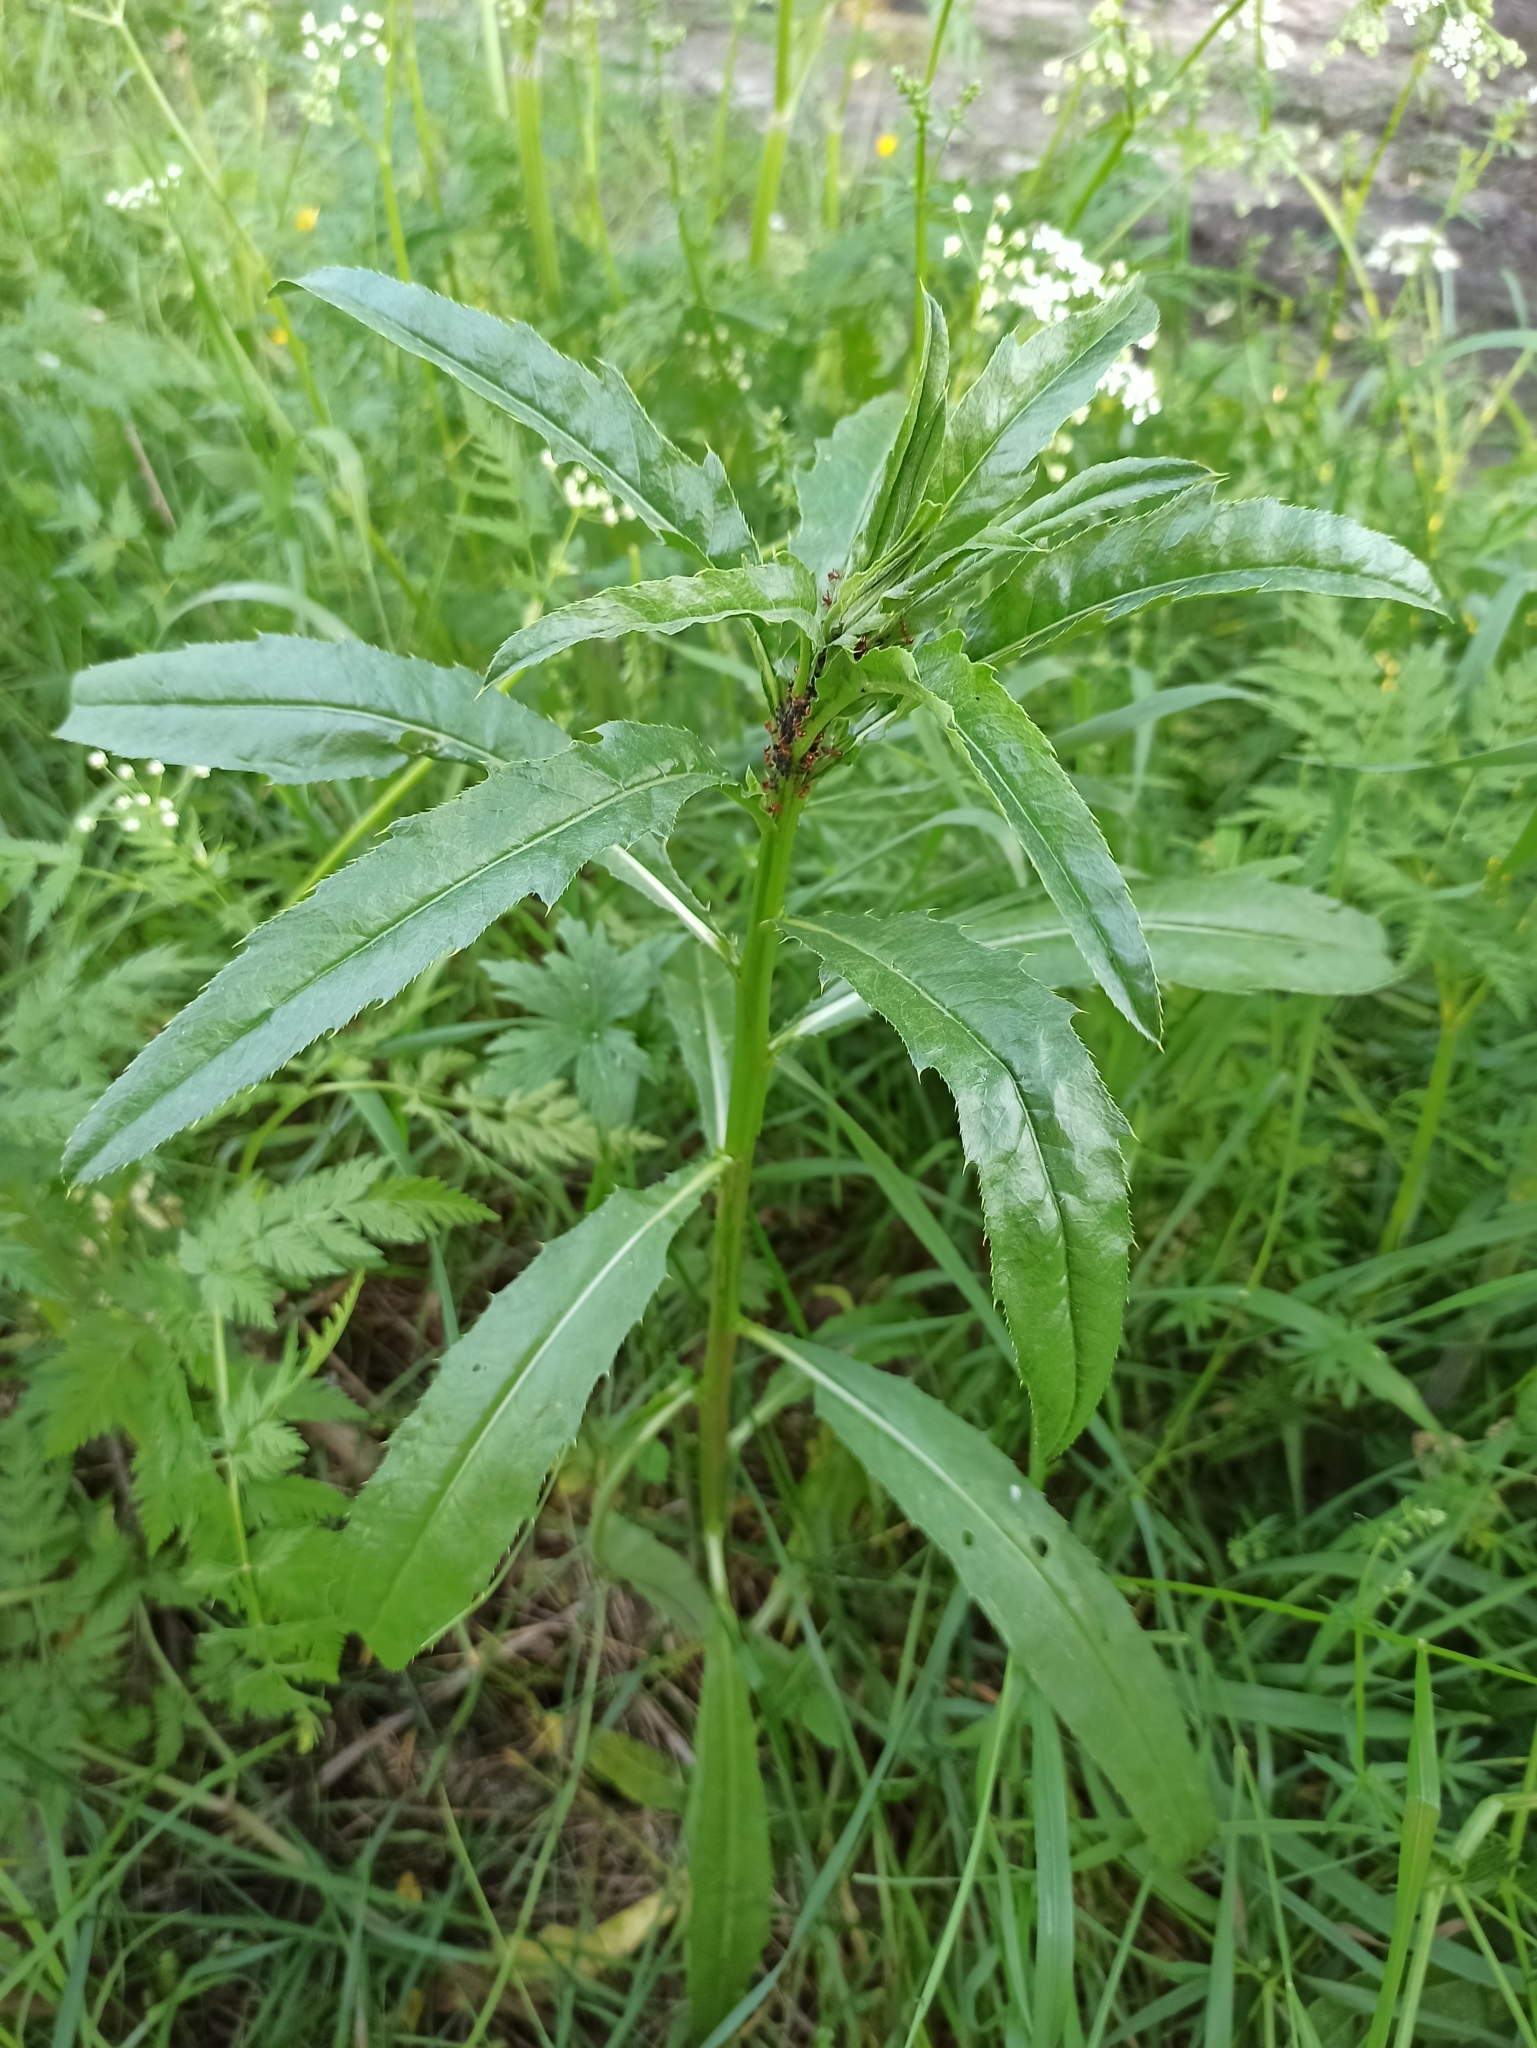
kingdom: Plantae
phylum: Tracheophyta
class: Magnoliopsida
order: Asterales
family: Asteraceae
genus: Cirsium
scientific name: Cirsium arvense
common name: Creeping thistle
